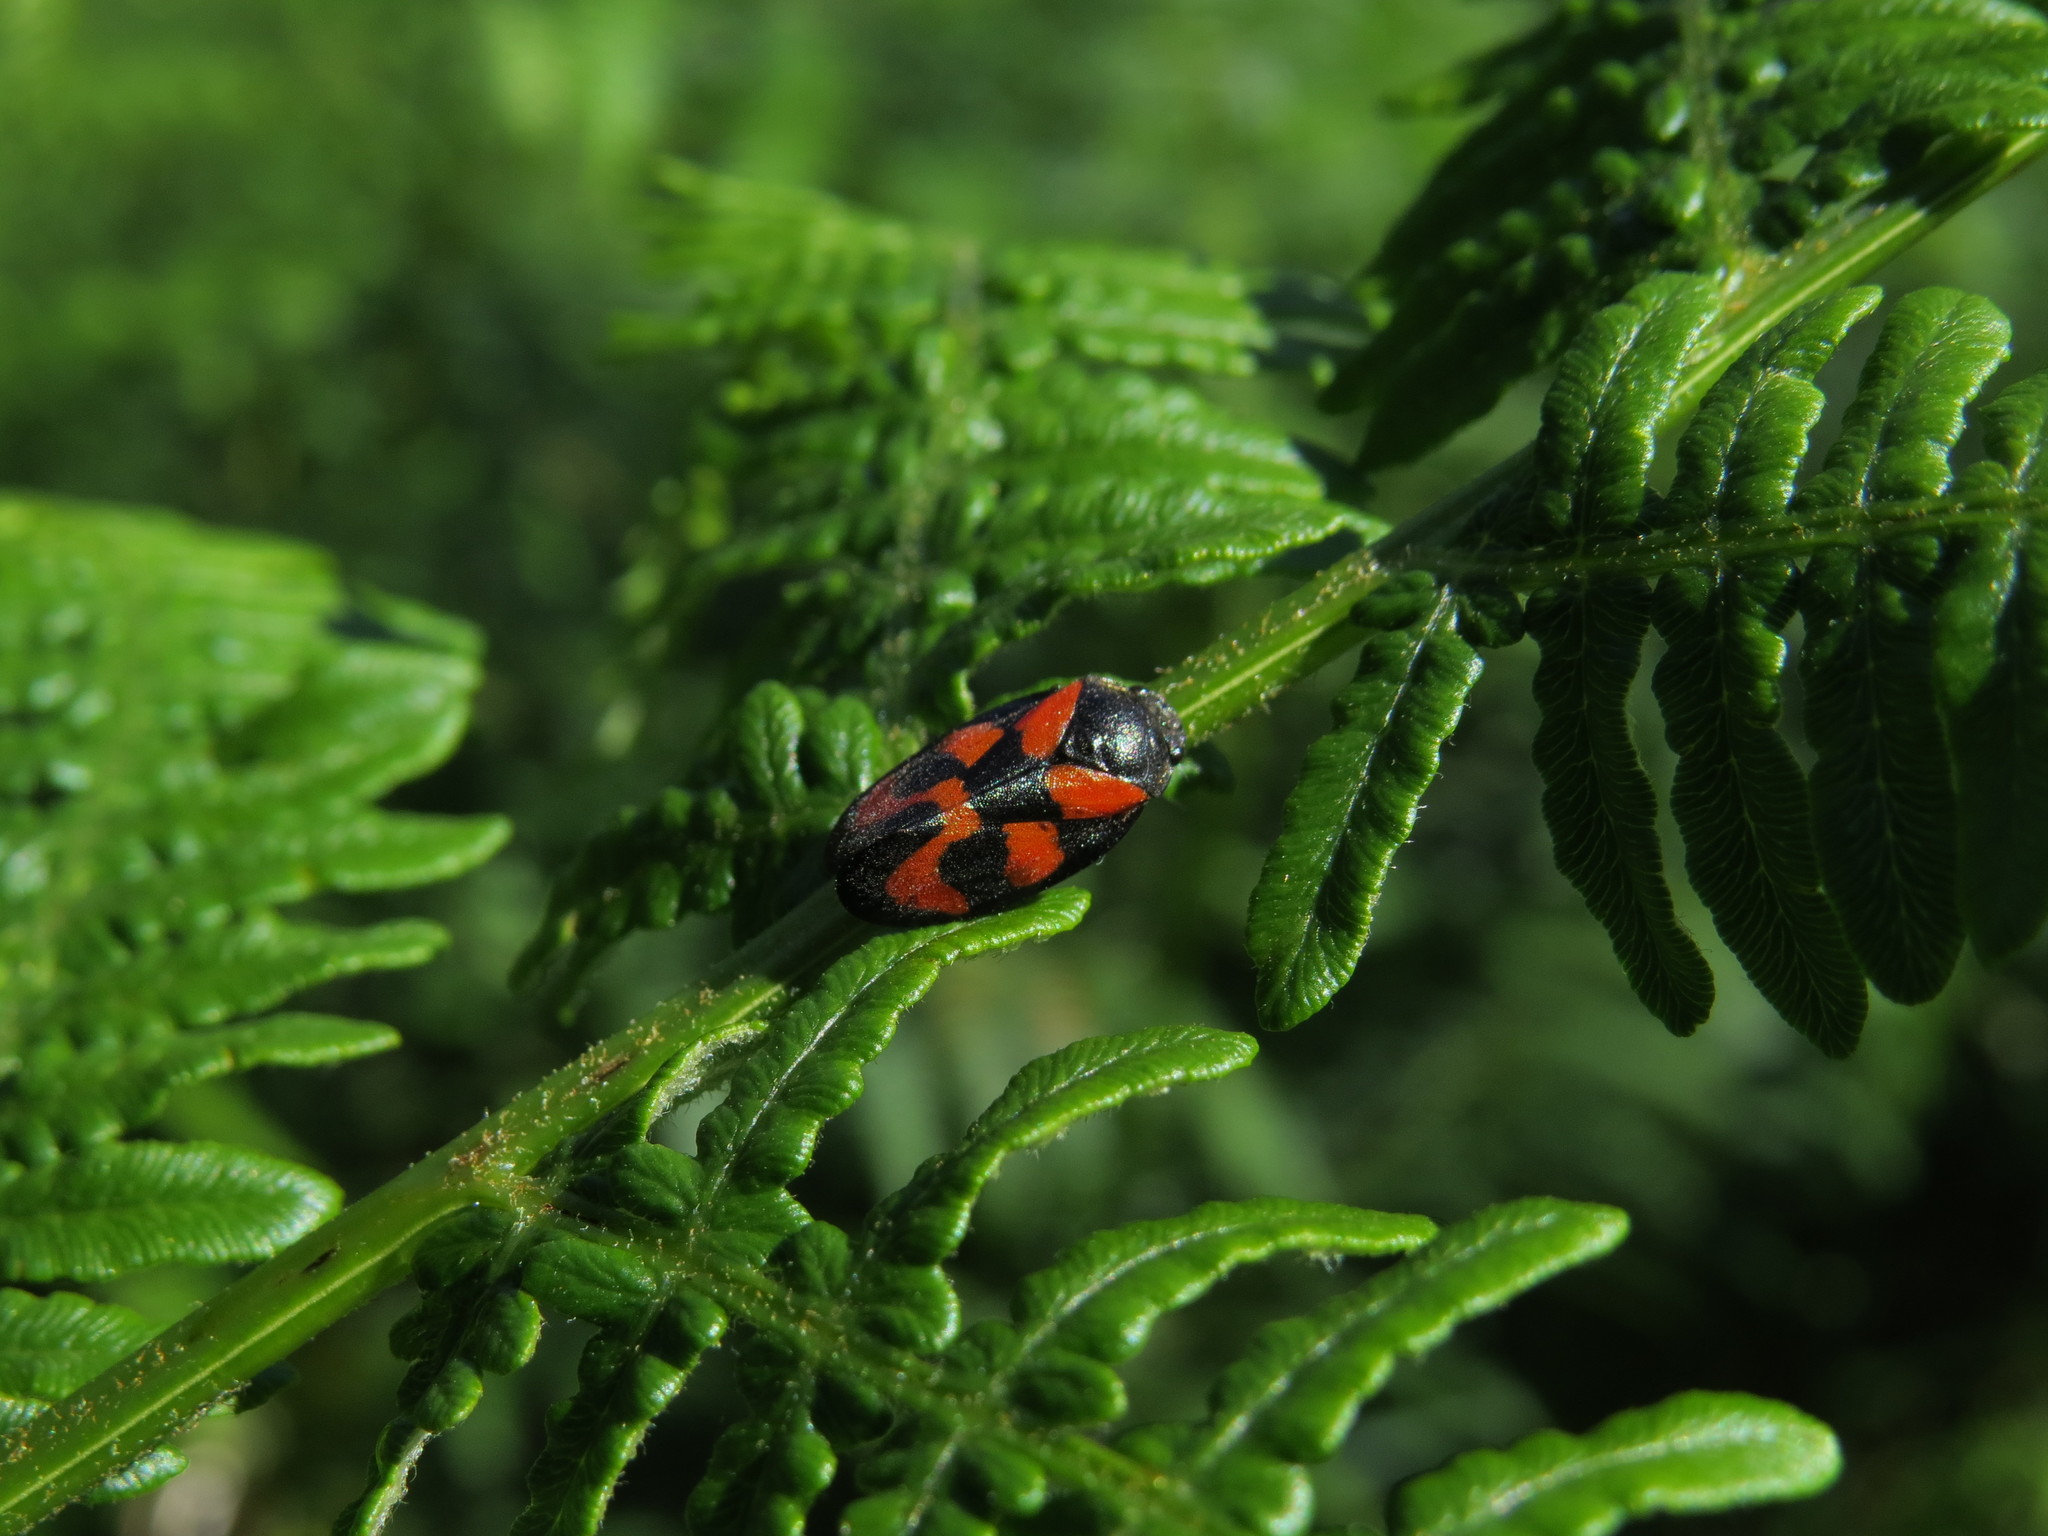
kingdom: Animalia
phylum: Arthropoda
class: Insecta
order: Hemiptera
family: Cercopidae
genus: Cercopis
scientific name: Cercopis vulnerata
